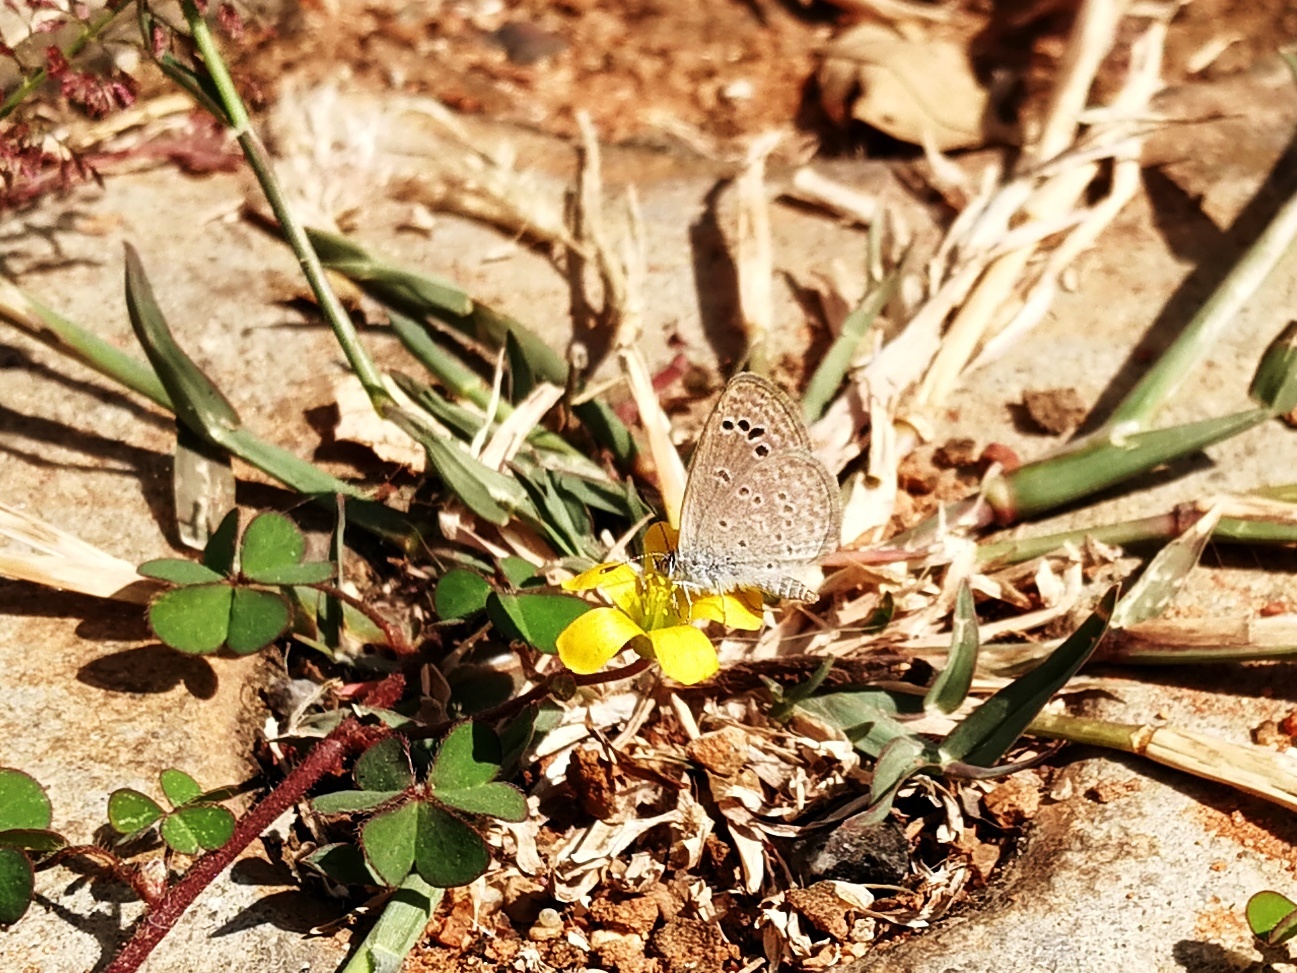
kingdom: Animalia
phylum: Arthropoda
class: Insecta
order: Lepidoptera
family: Lycaenidae
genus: Zizina
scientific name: Zizina otis
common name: Lesser grass blue
